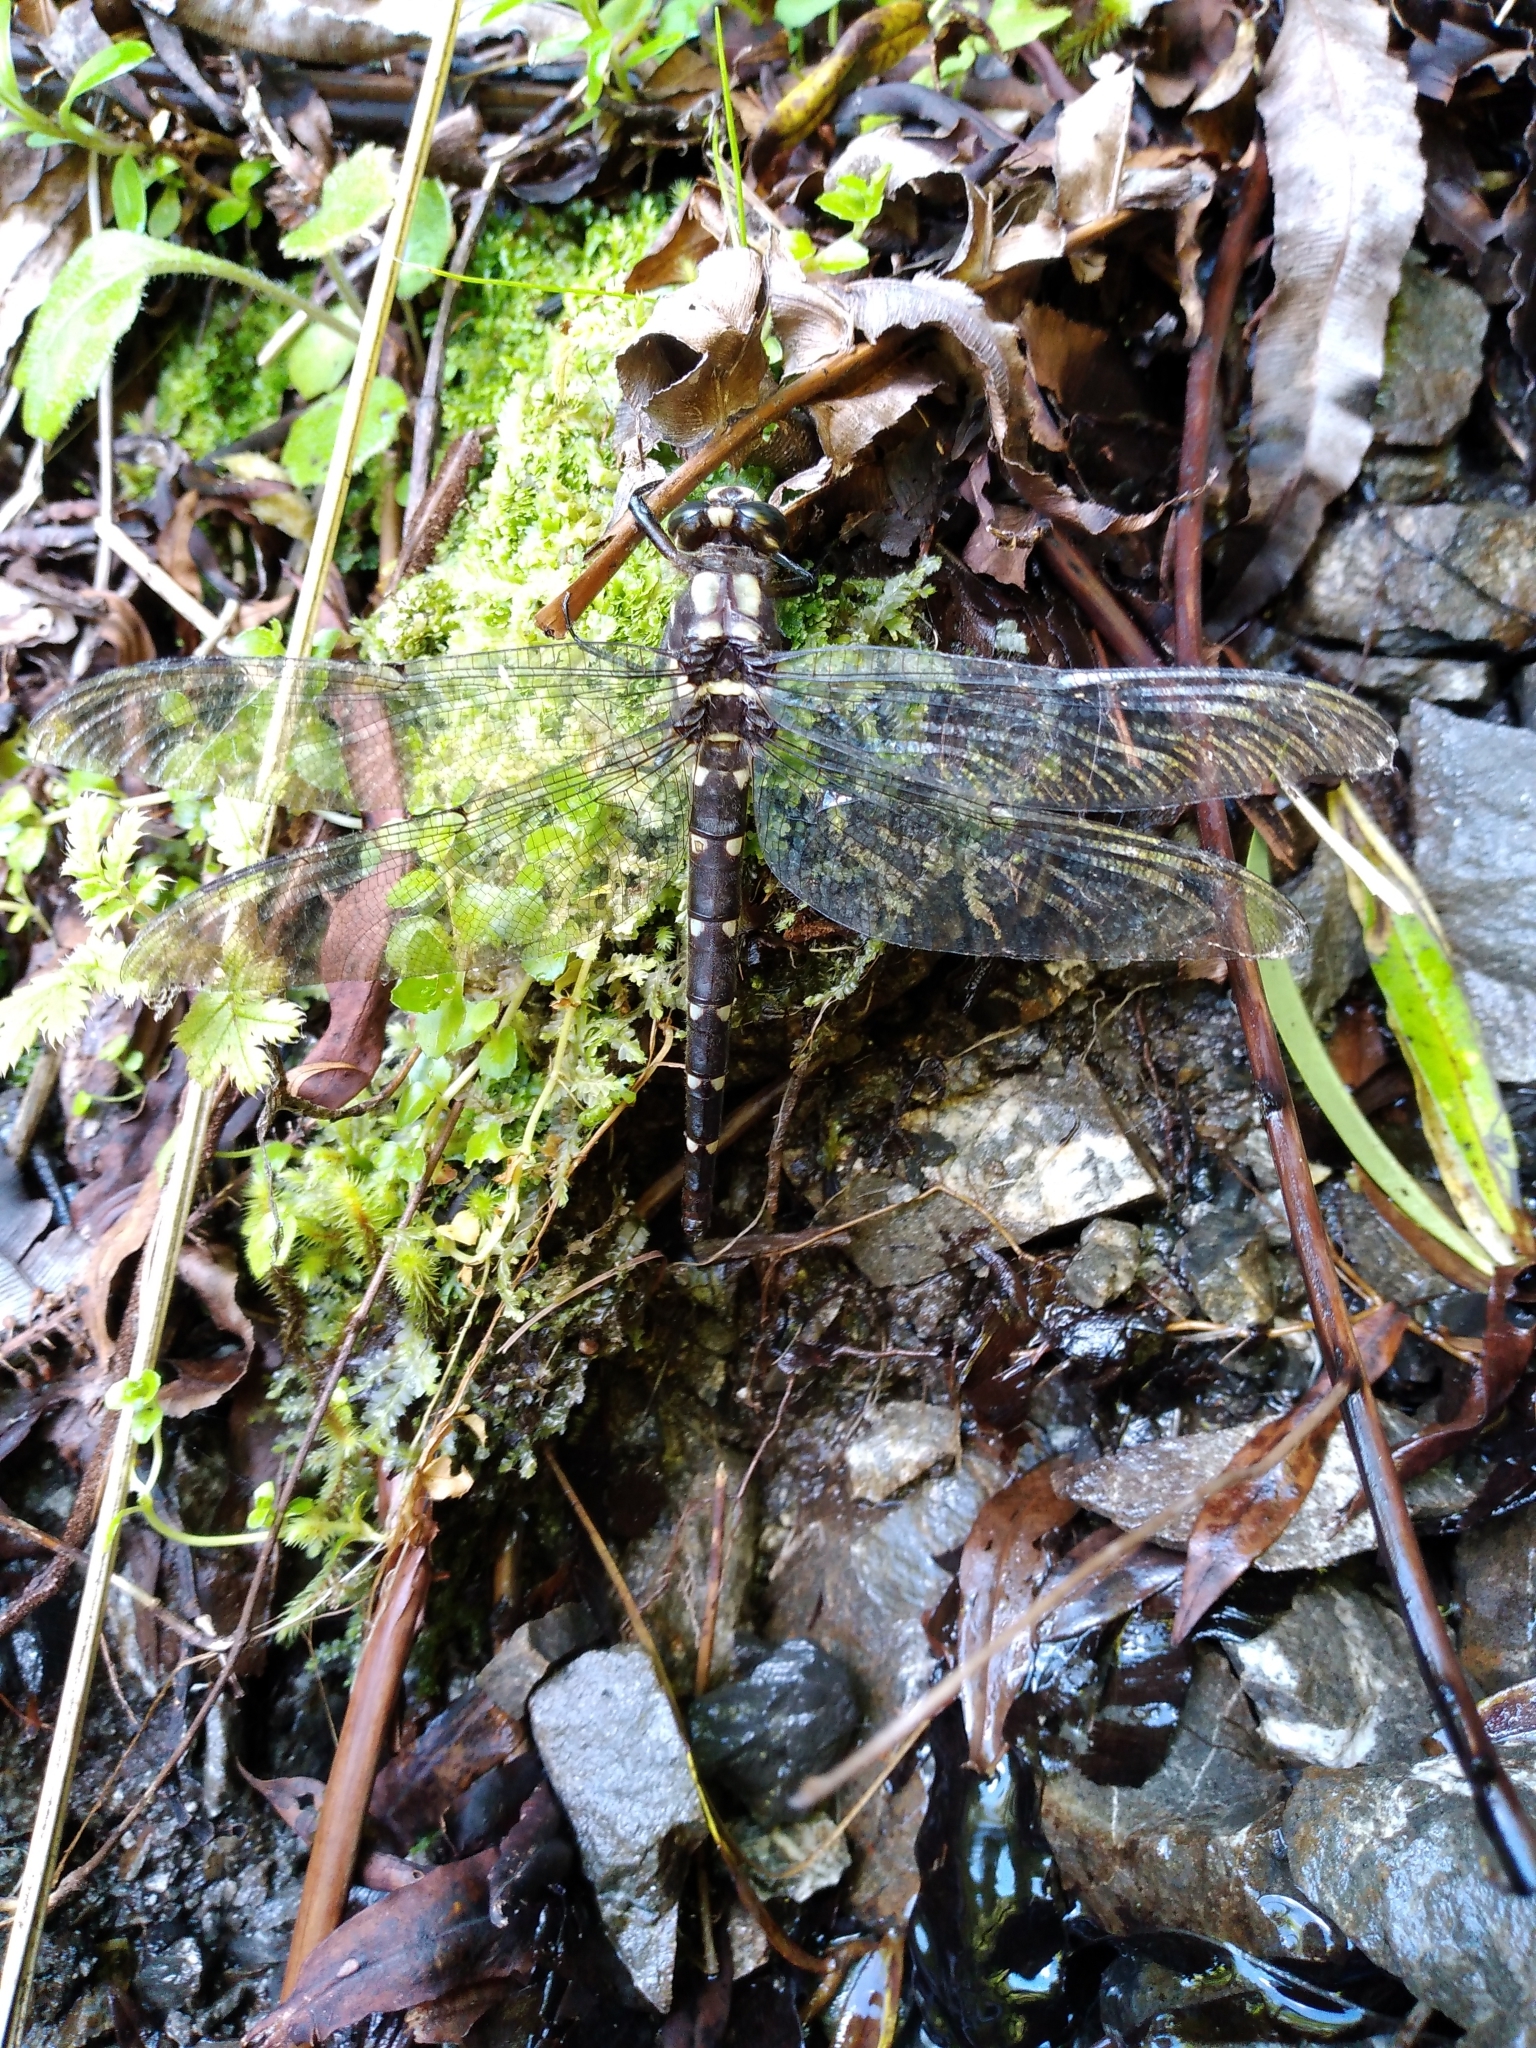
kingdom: Animalia
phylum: Arthropoda
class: Insecta
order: Odonata
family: Petaluridae
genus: Uropetala
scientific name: Uropetala carovei
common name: Bush giant dragonfly
